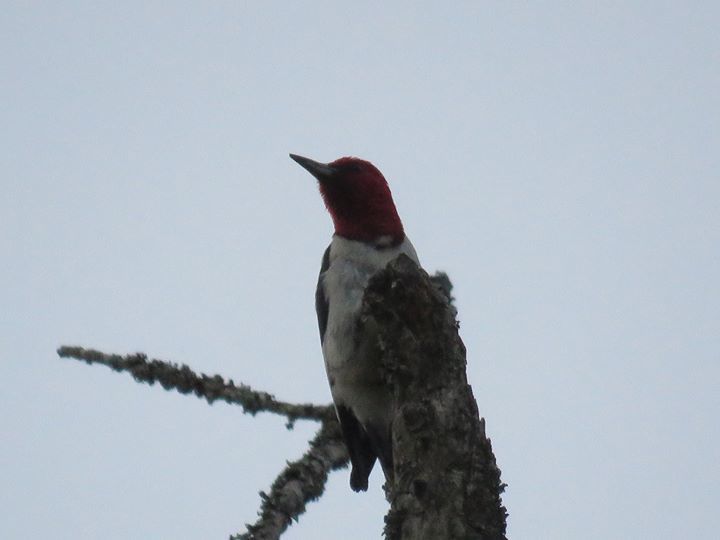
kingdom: Animalia
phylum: Chordata
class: Aves
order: Piciformes
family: Picidae
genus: Melanerpes
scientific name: Melanerpes erythrocephalus
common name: Red-headed woodpecker
